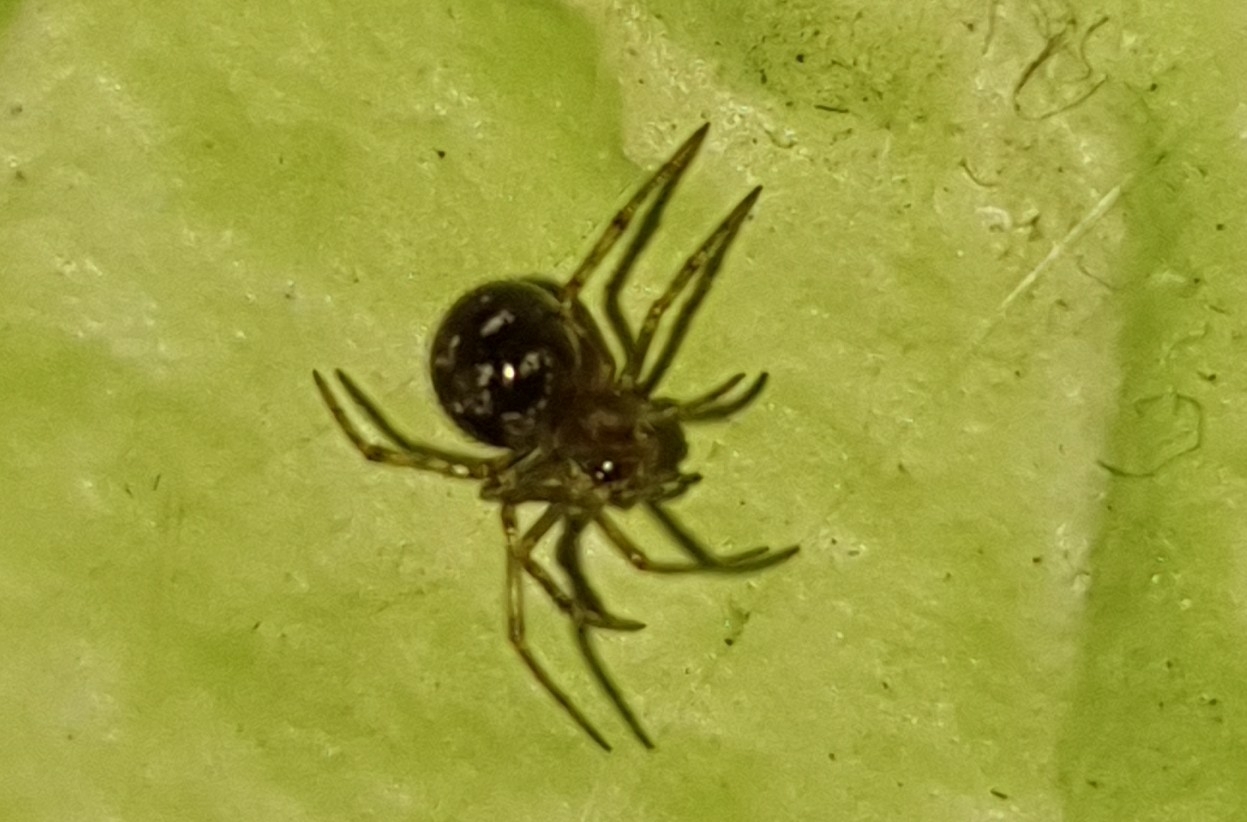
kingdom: Animalia
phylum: Arthropoda
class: Arachnida
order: Araneae
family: Theridiidae
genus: Steatoda
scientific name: Steatoda triangulosa
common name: Triangulate bud spider
